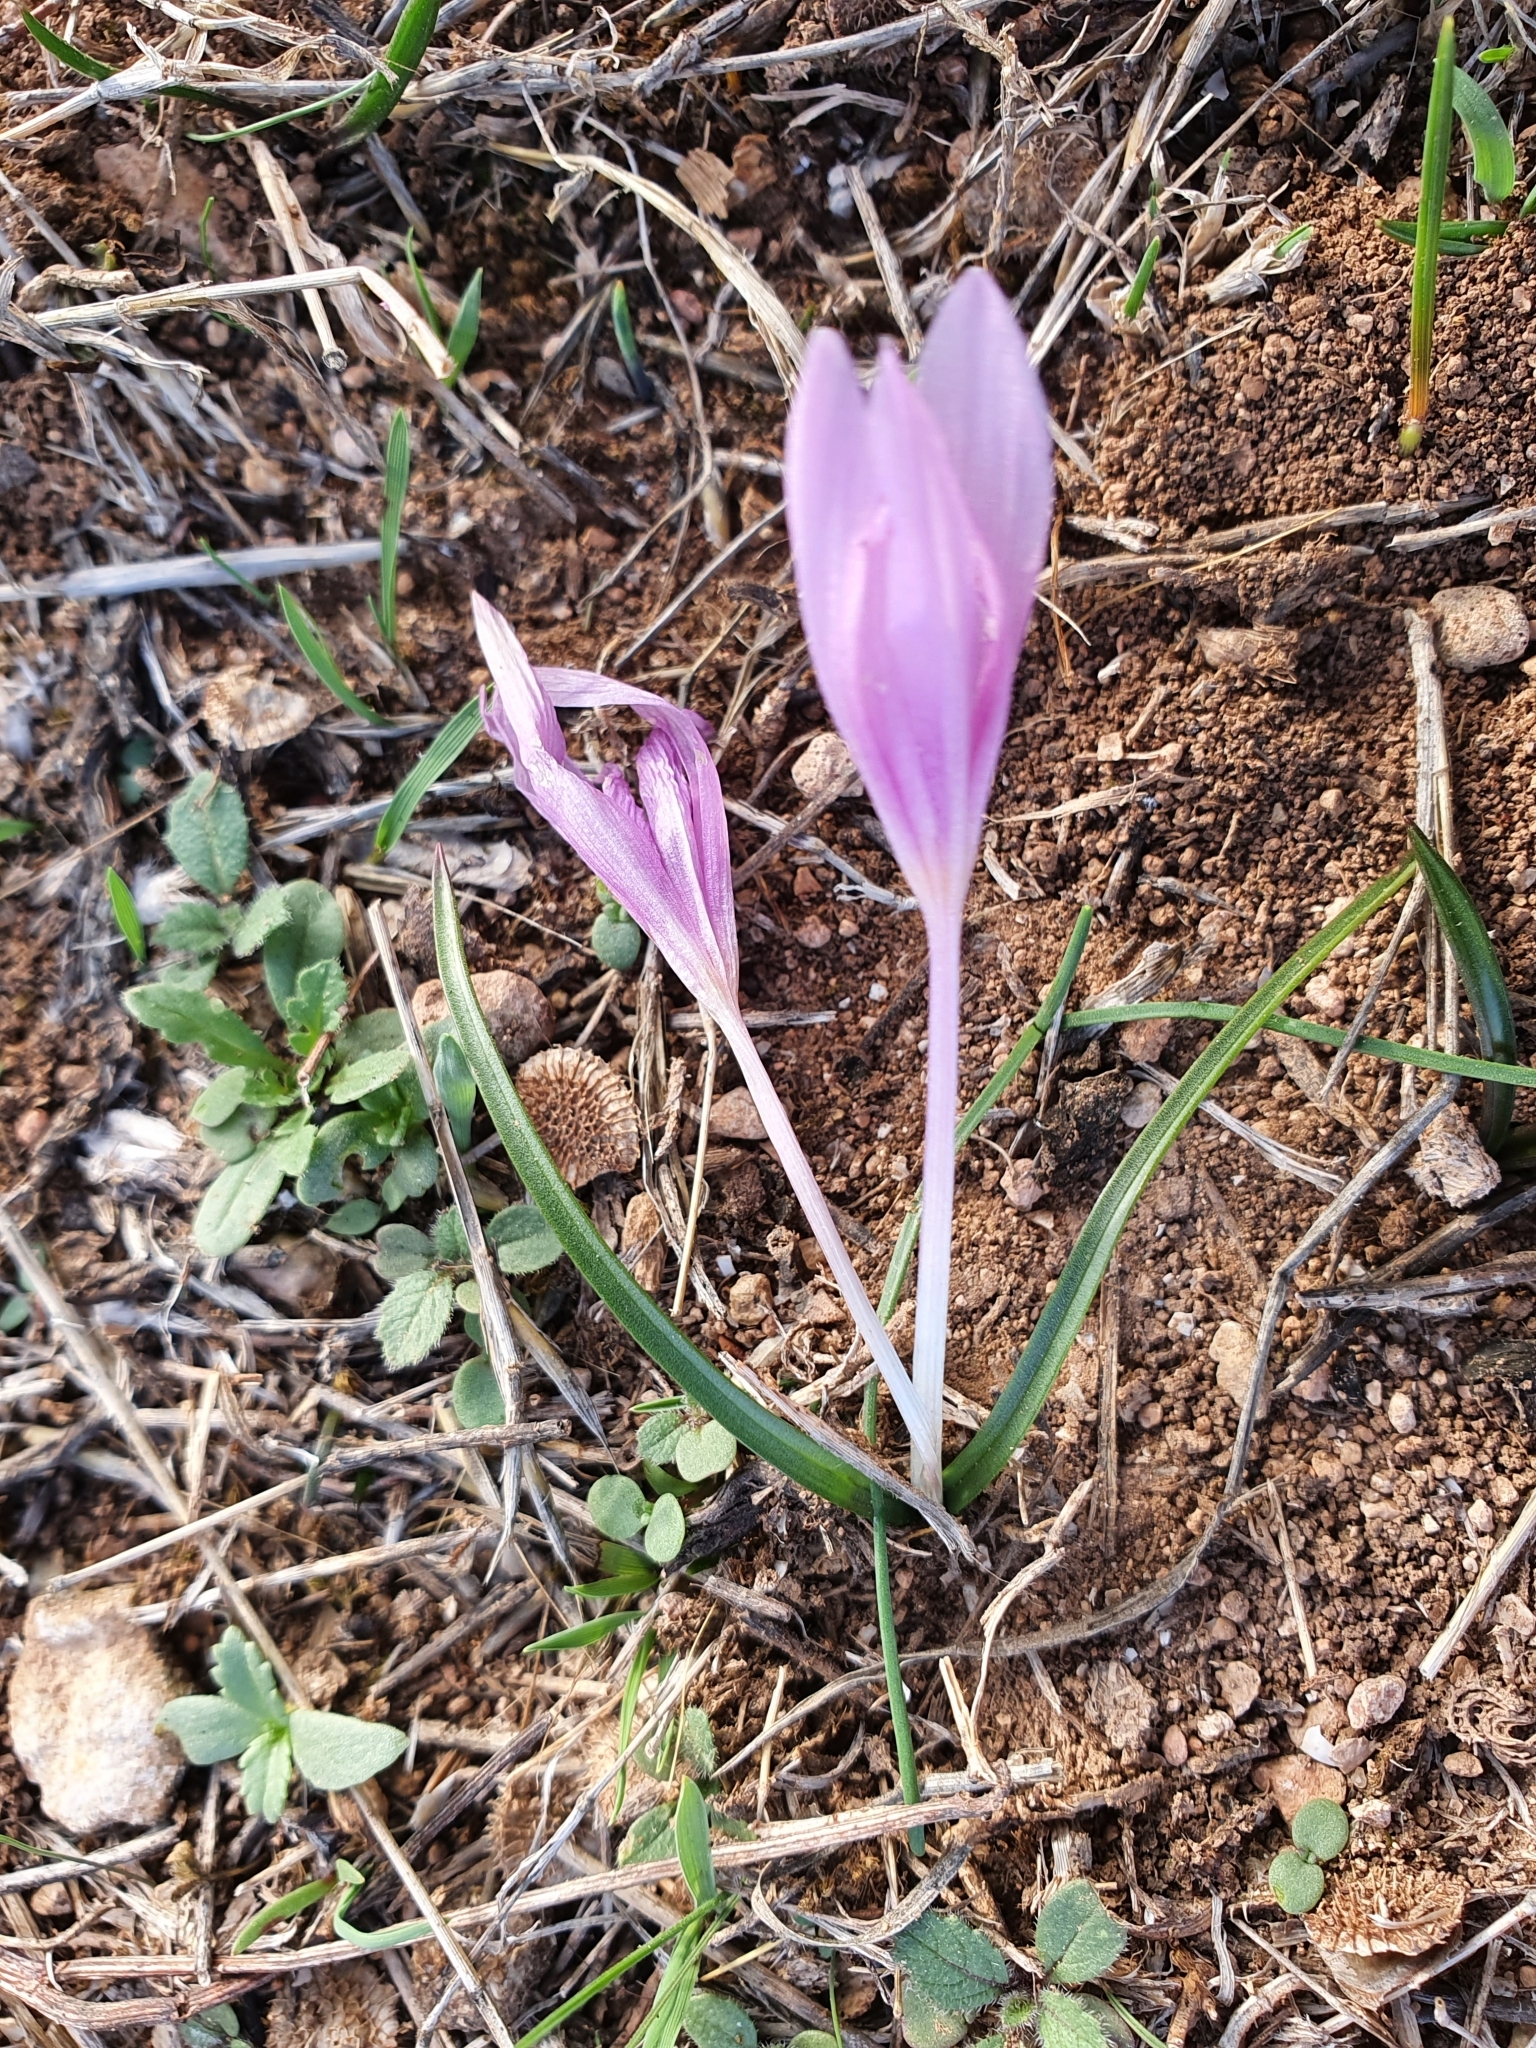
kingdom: Plantae
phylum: Tracheophyta
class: Liliopsida
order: Liliales
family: Colchicaceae
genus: Colchicum
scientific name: Colchicum cupanii
